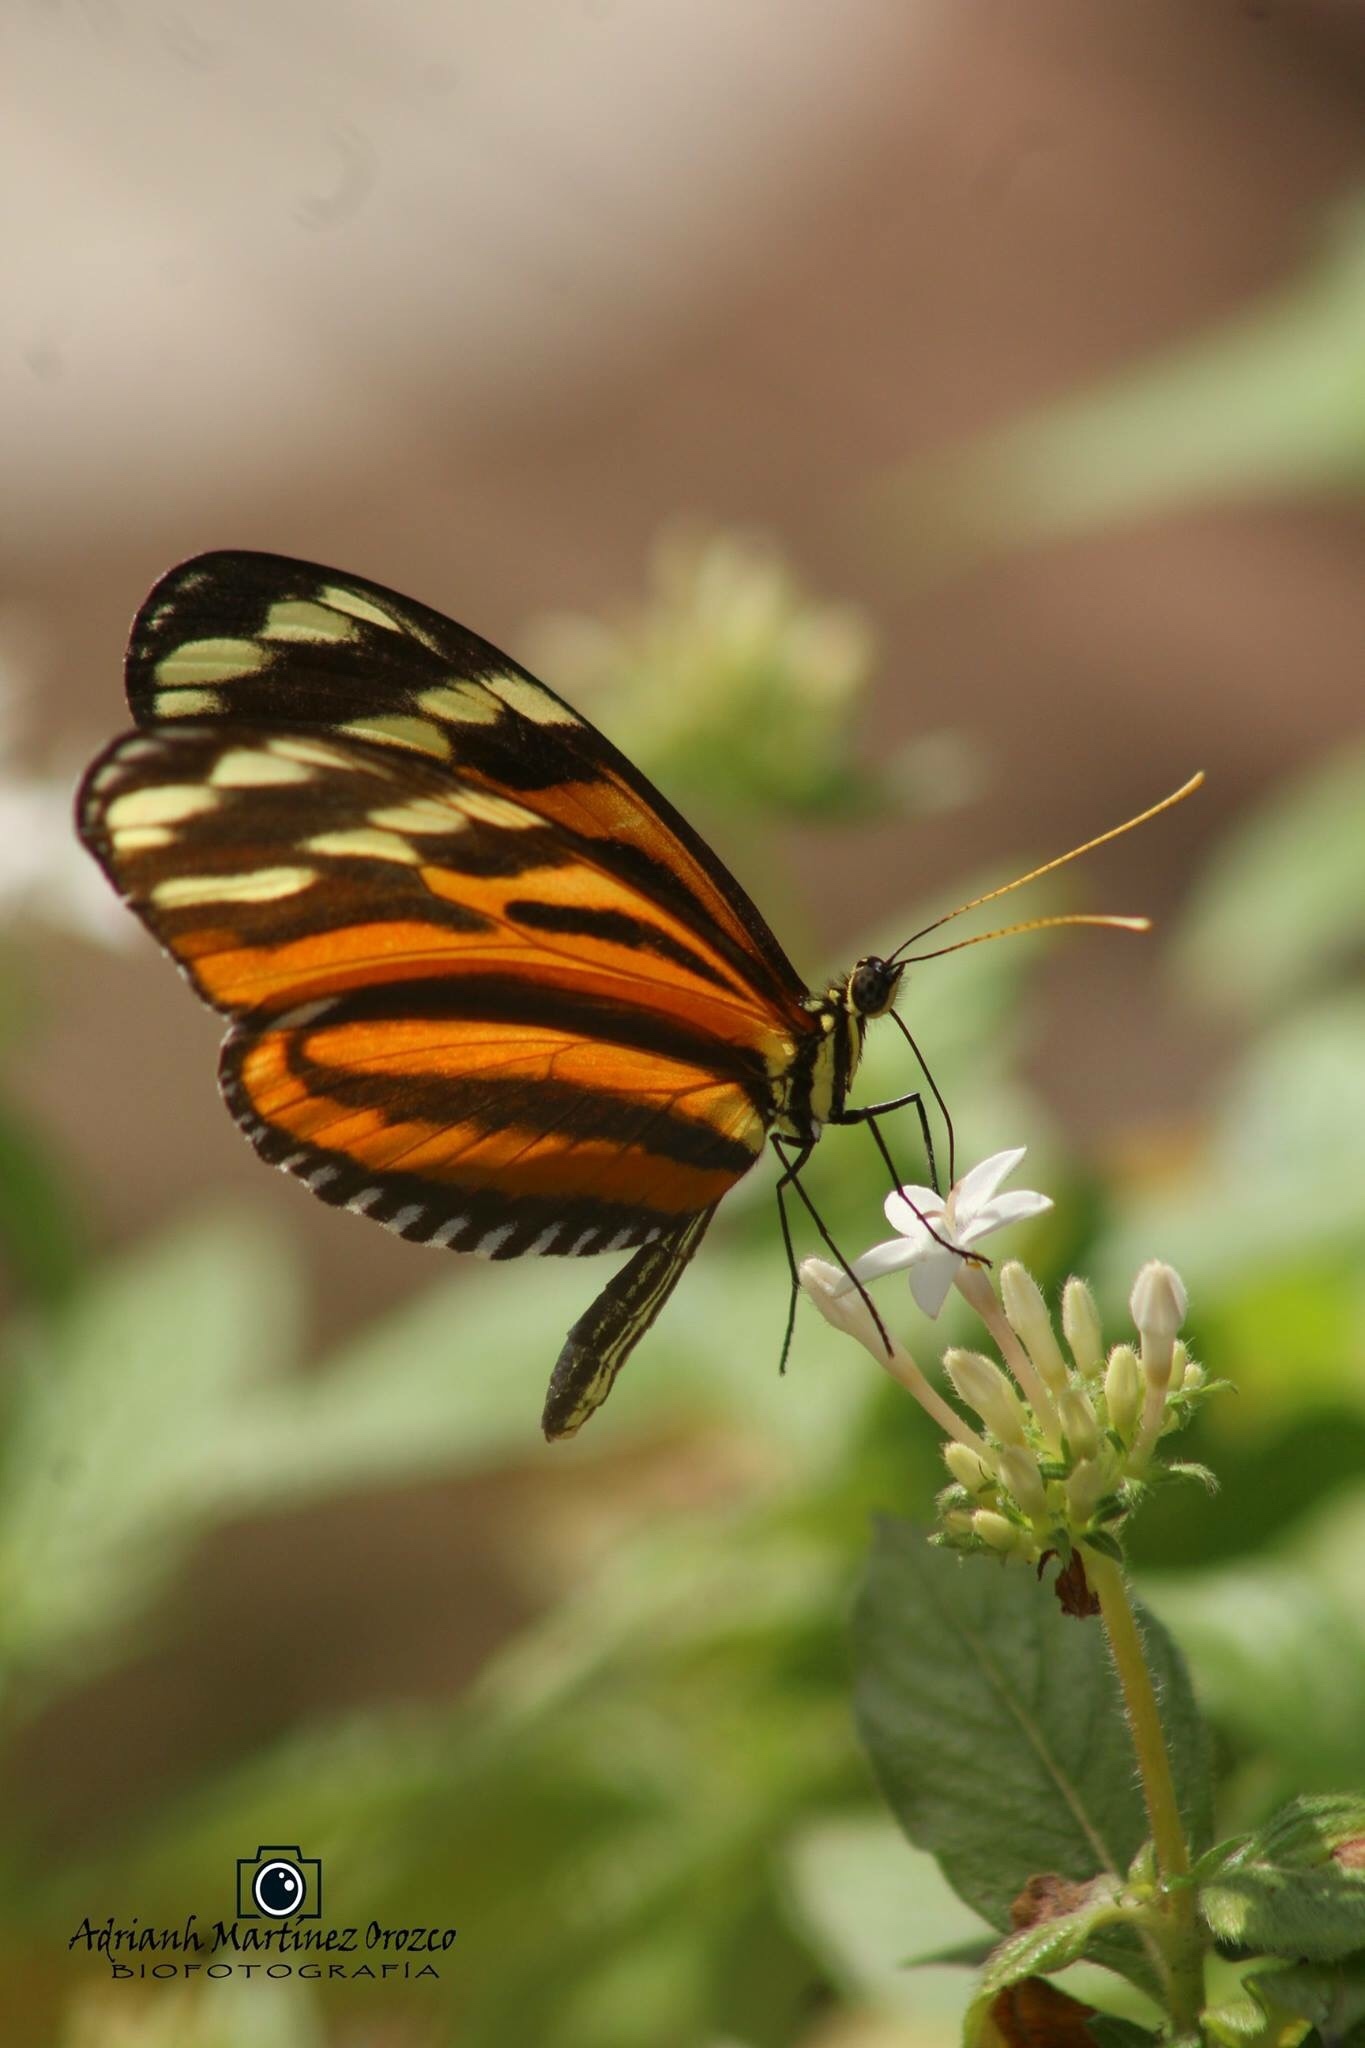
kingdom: Animalia
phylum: Arthropoda
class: Insecta
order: Lepidoptera
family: Nymphalidae
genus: Heliconius
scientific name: Heliconius ismenius
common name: Ismenius tiger
